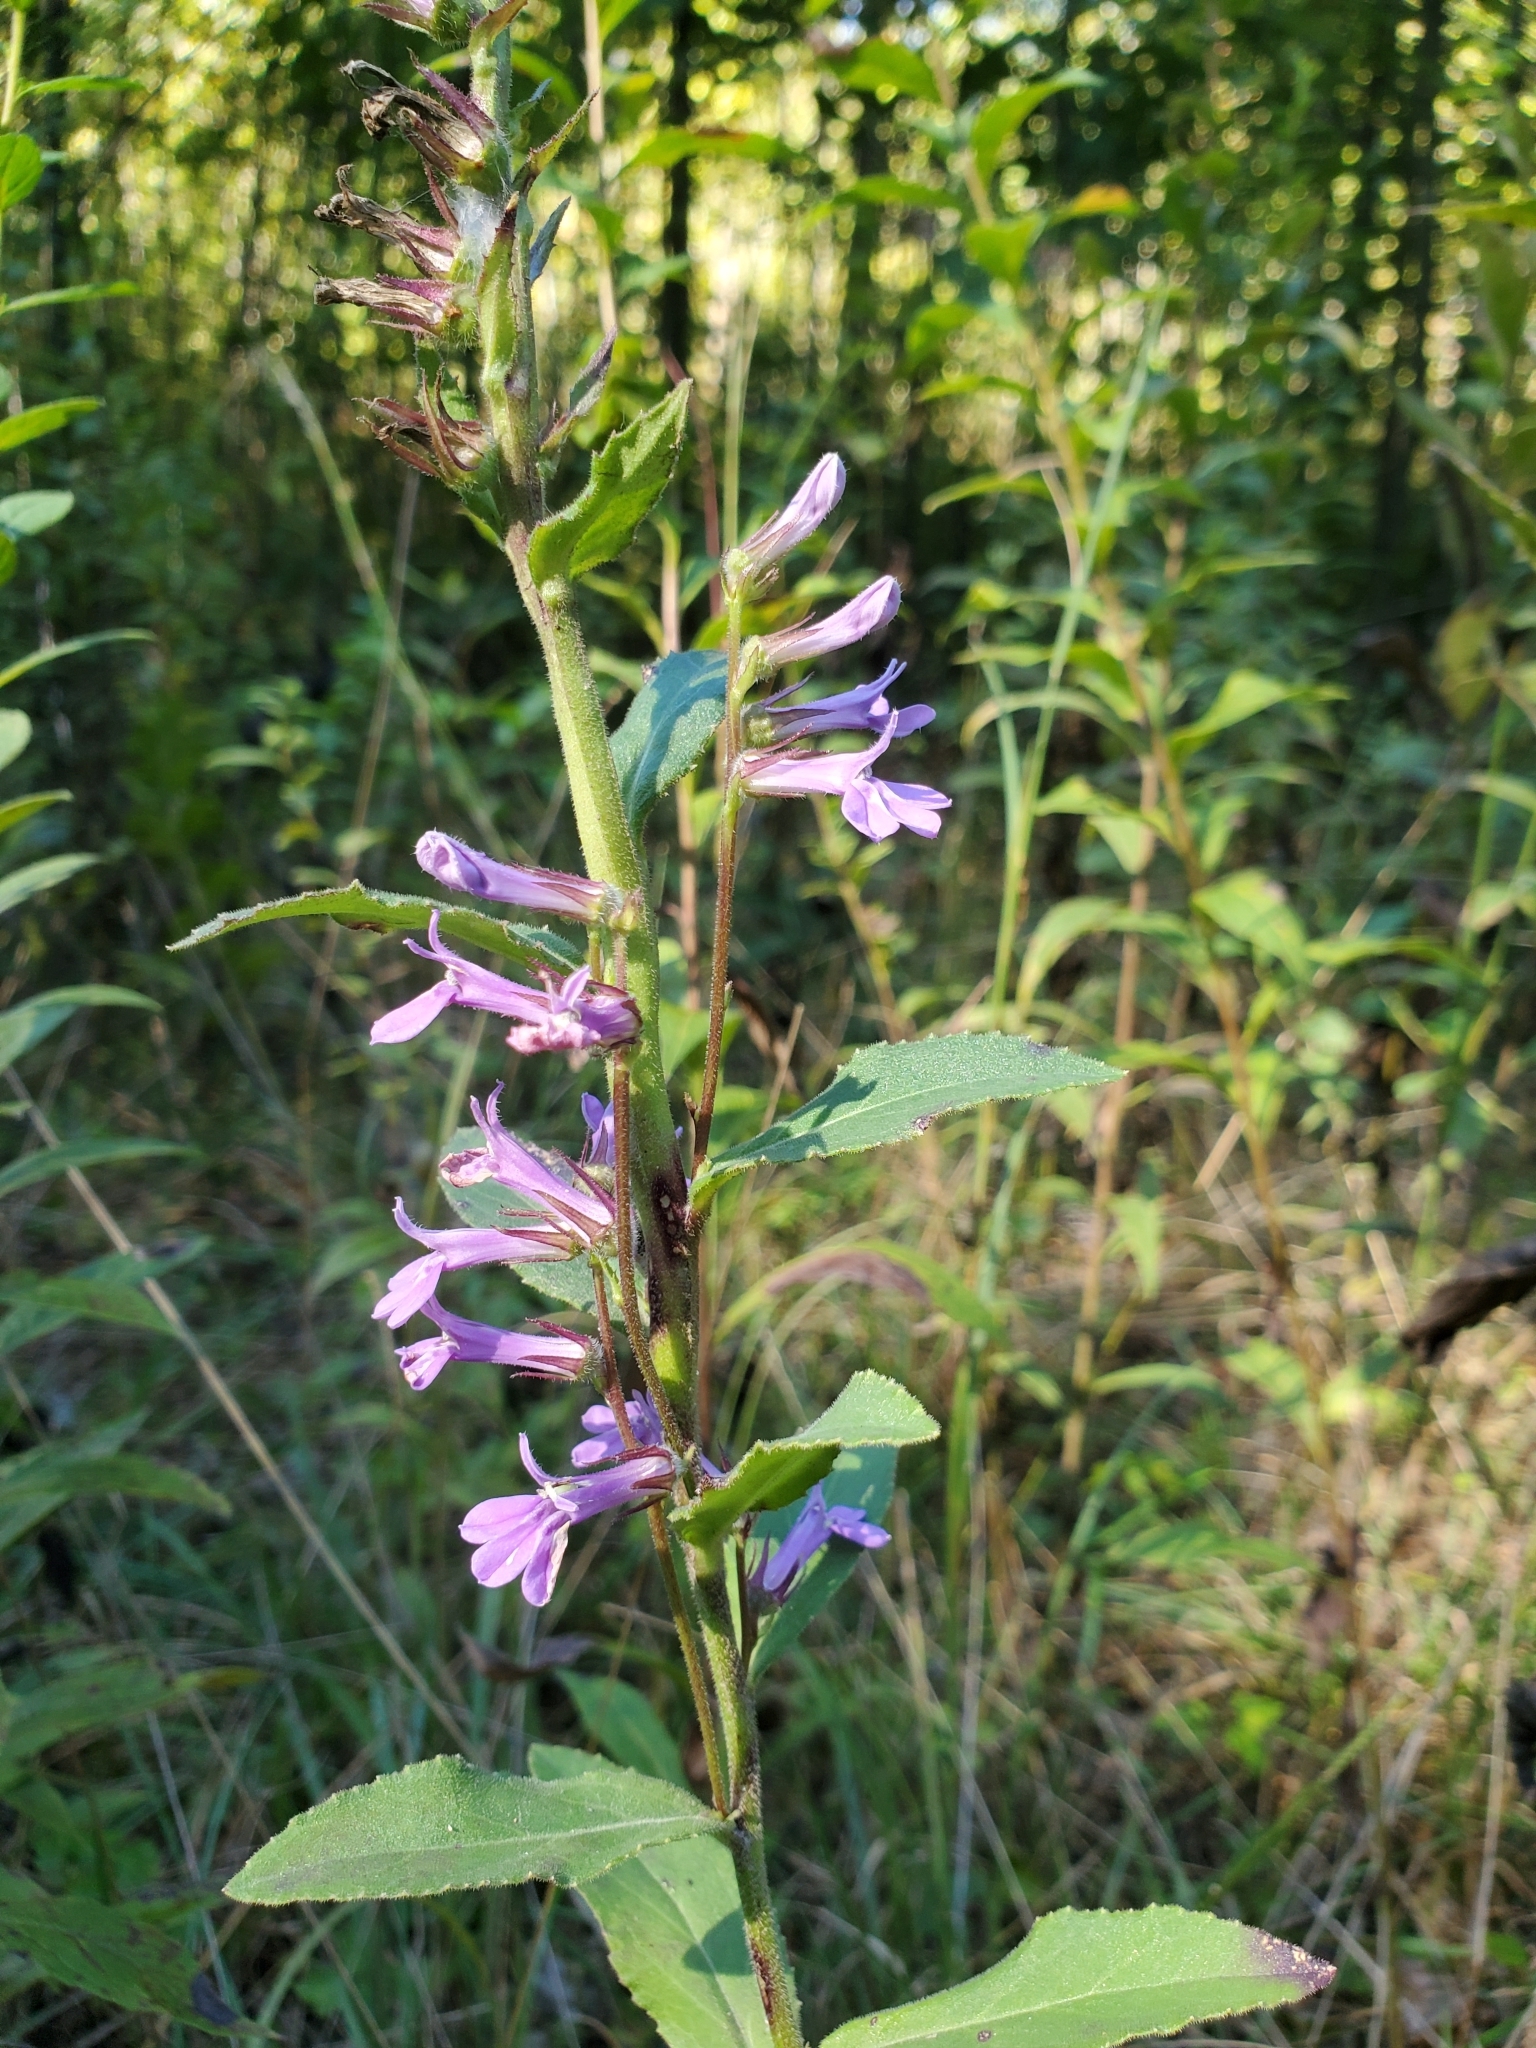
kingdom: Plantae
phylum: Tracheophyta
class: Magnoliopsida
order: Asterales
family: Campanulaceae
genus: Lobelia
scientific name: Lobelia puberula
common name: Purple dewdrop
